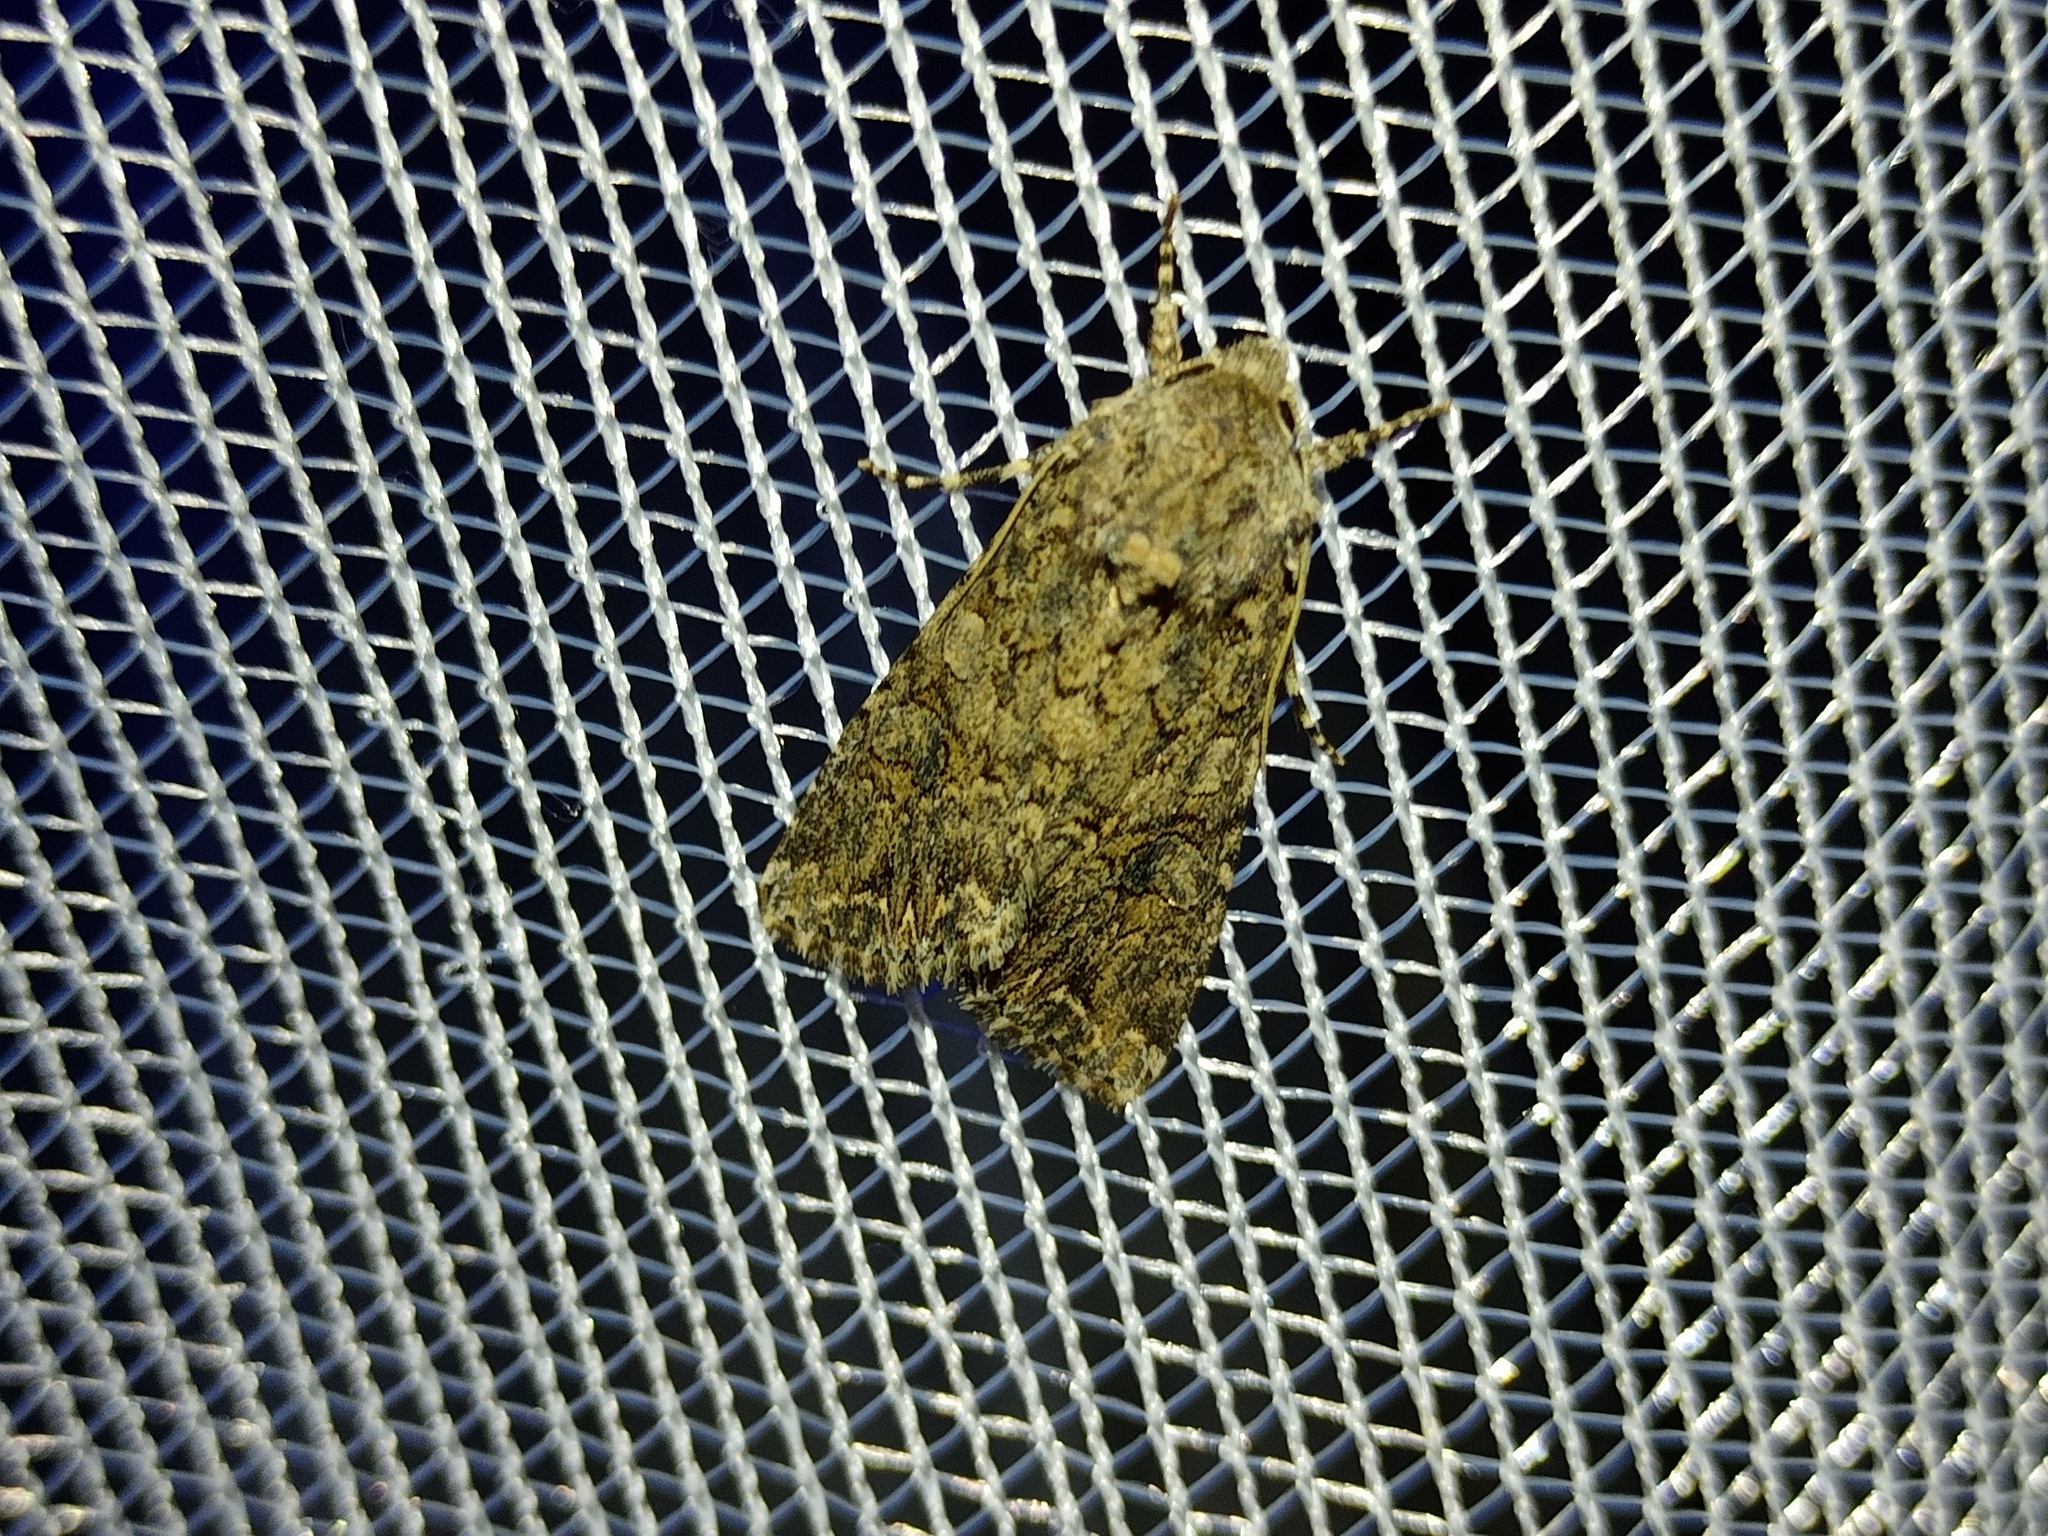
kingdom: Animalia
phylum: Arthropoda
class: Insecta
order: Lepidoptera
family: Noctuidae
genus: Anarta
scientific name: Anarta trifolii
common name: Clover cutworm moth
